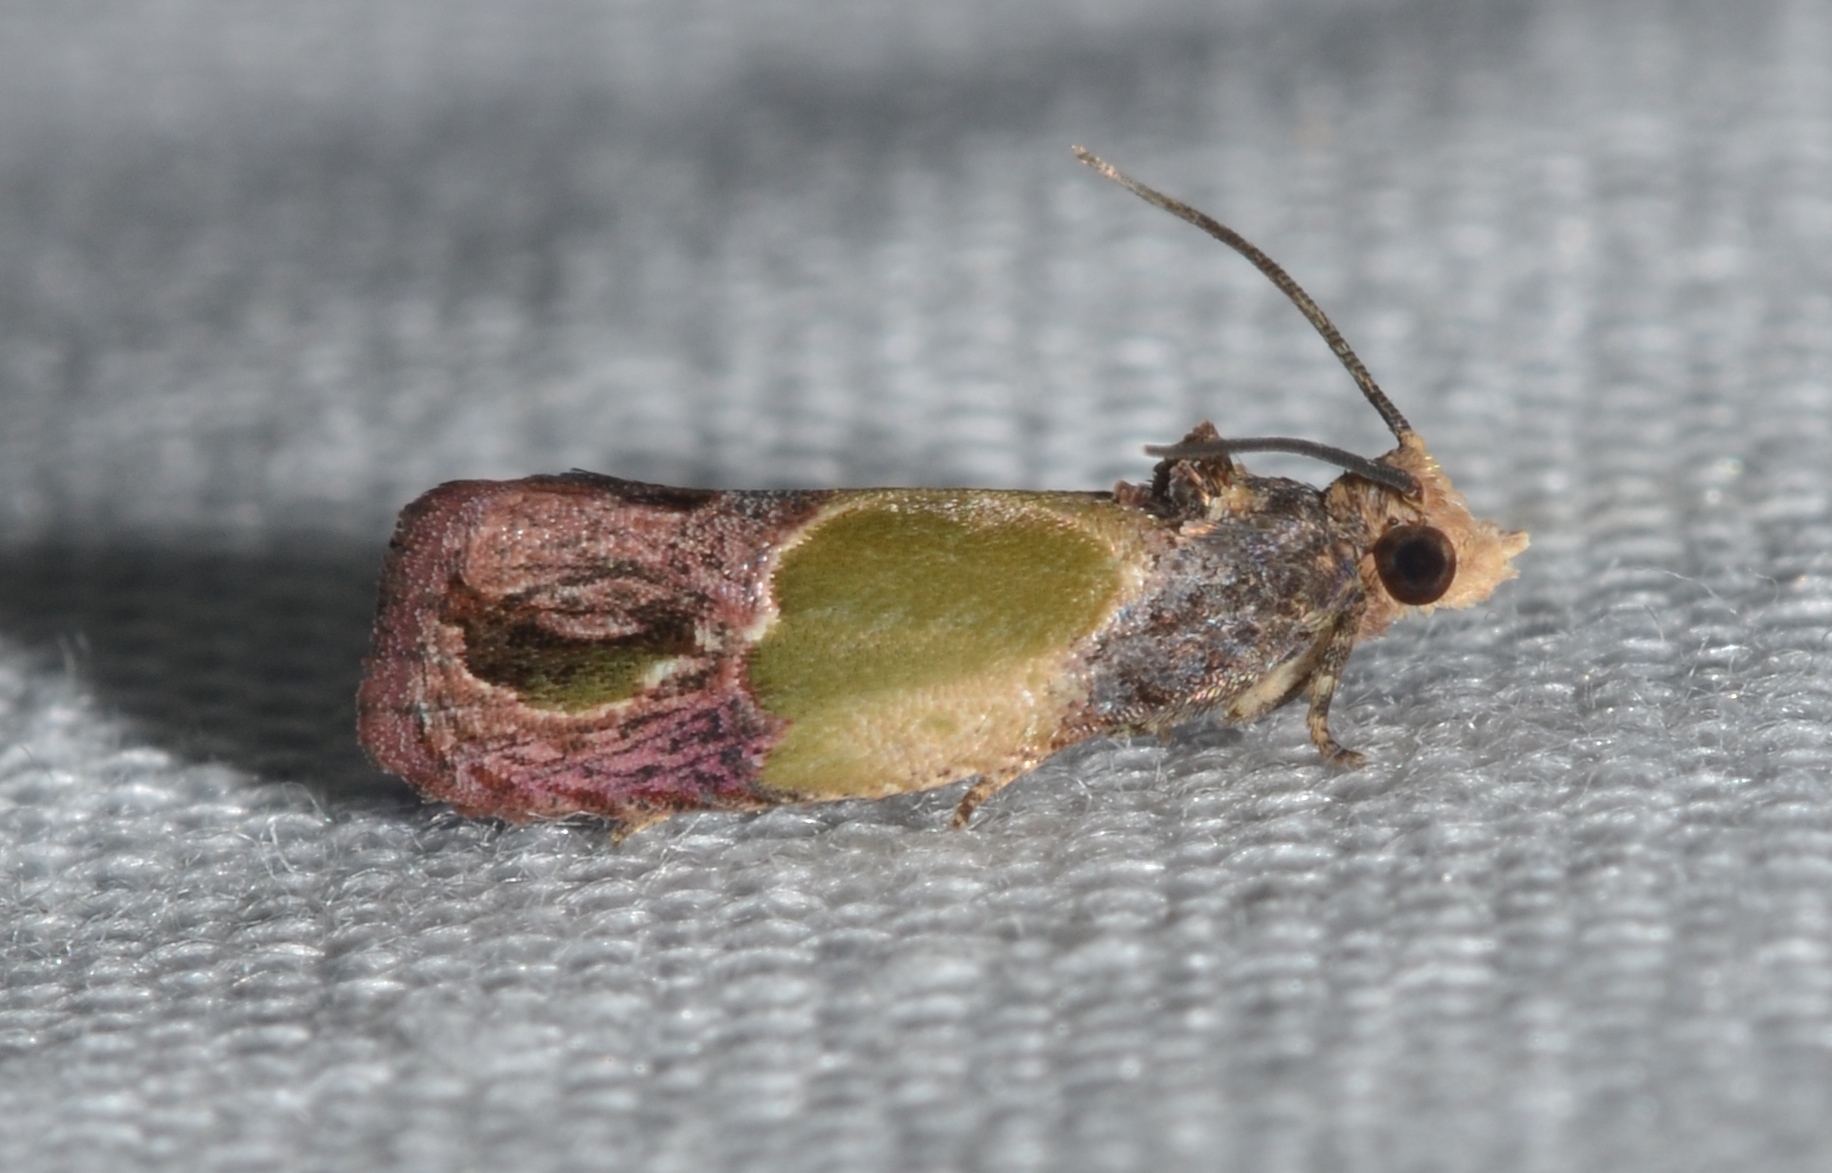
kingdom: Animalia
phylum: Arthropoda
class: Insecta
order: Lepidoptera
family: Tortricidae
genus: Eumarozia
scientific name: Eumarozia malachitana
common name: Sculptured moth
